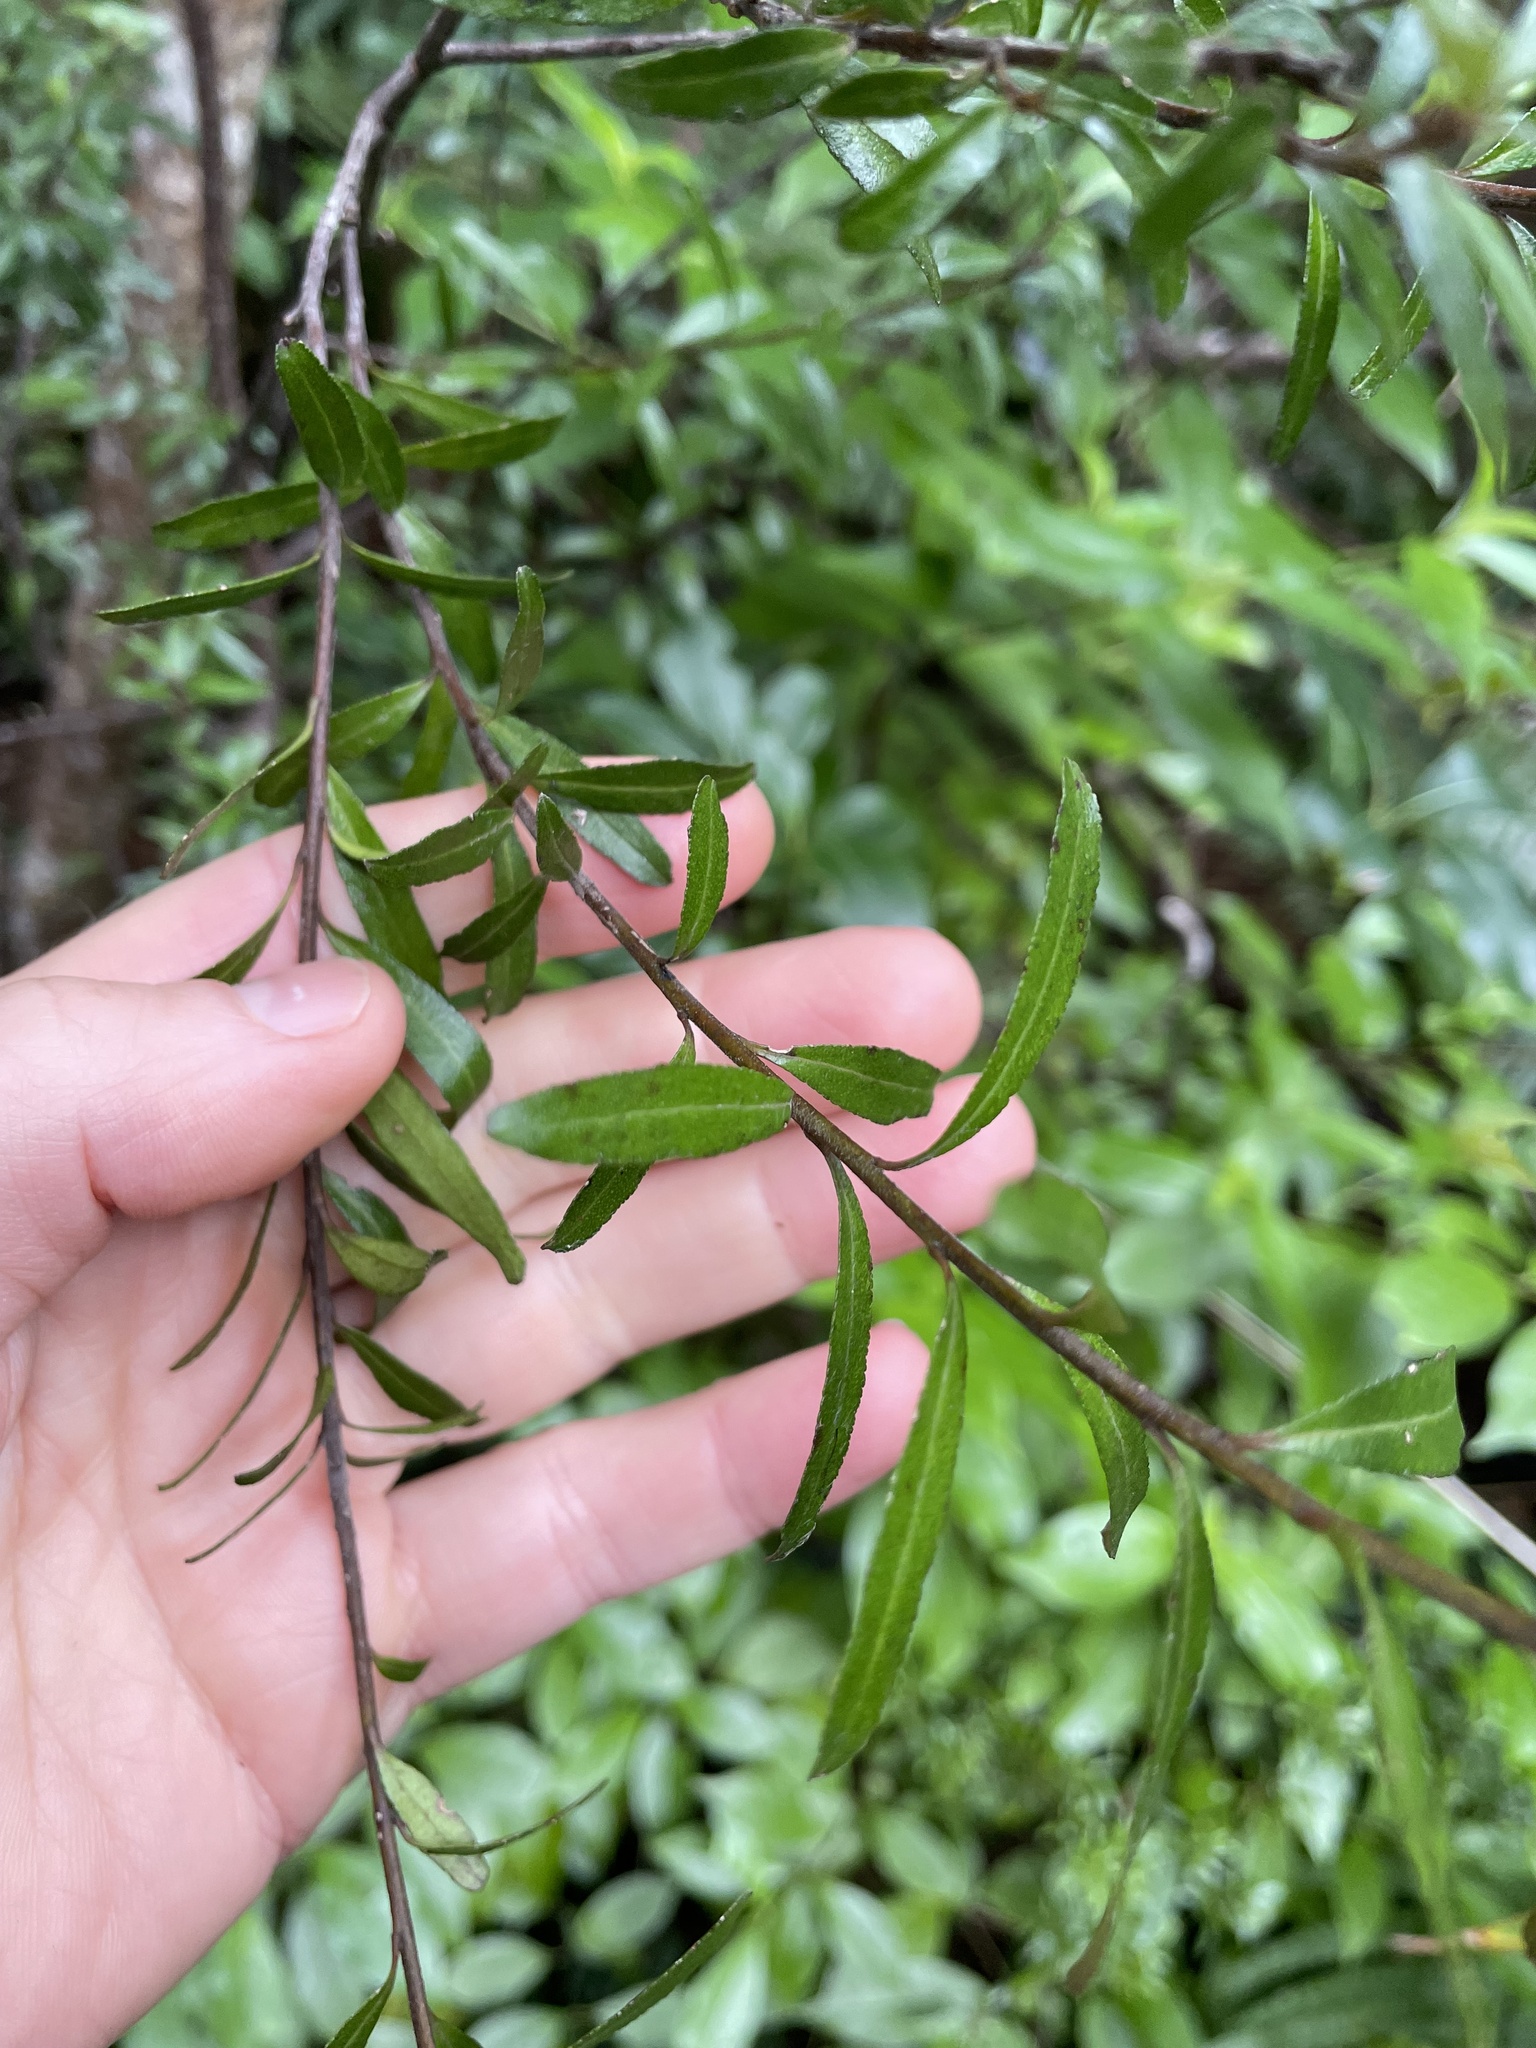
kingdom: Plantae
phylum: Tracheophyta
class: Magnoliopsida
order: Sapindales
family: Rutaceae
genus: Leionema
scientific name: Leionema nudum
